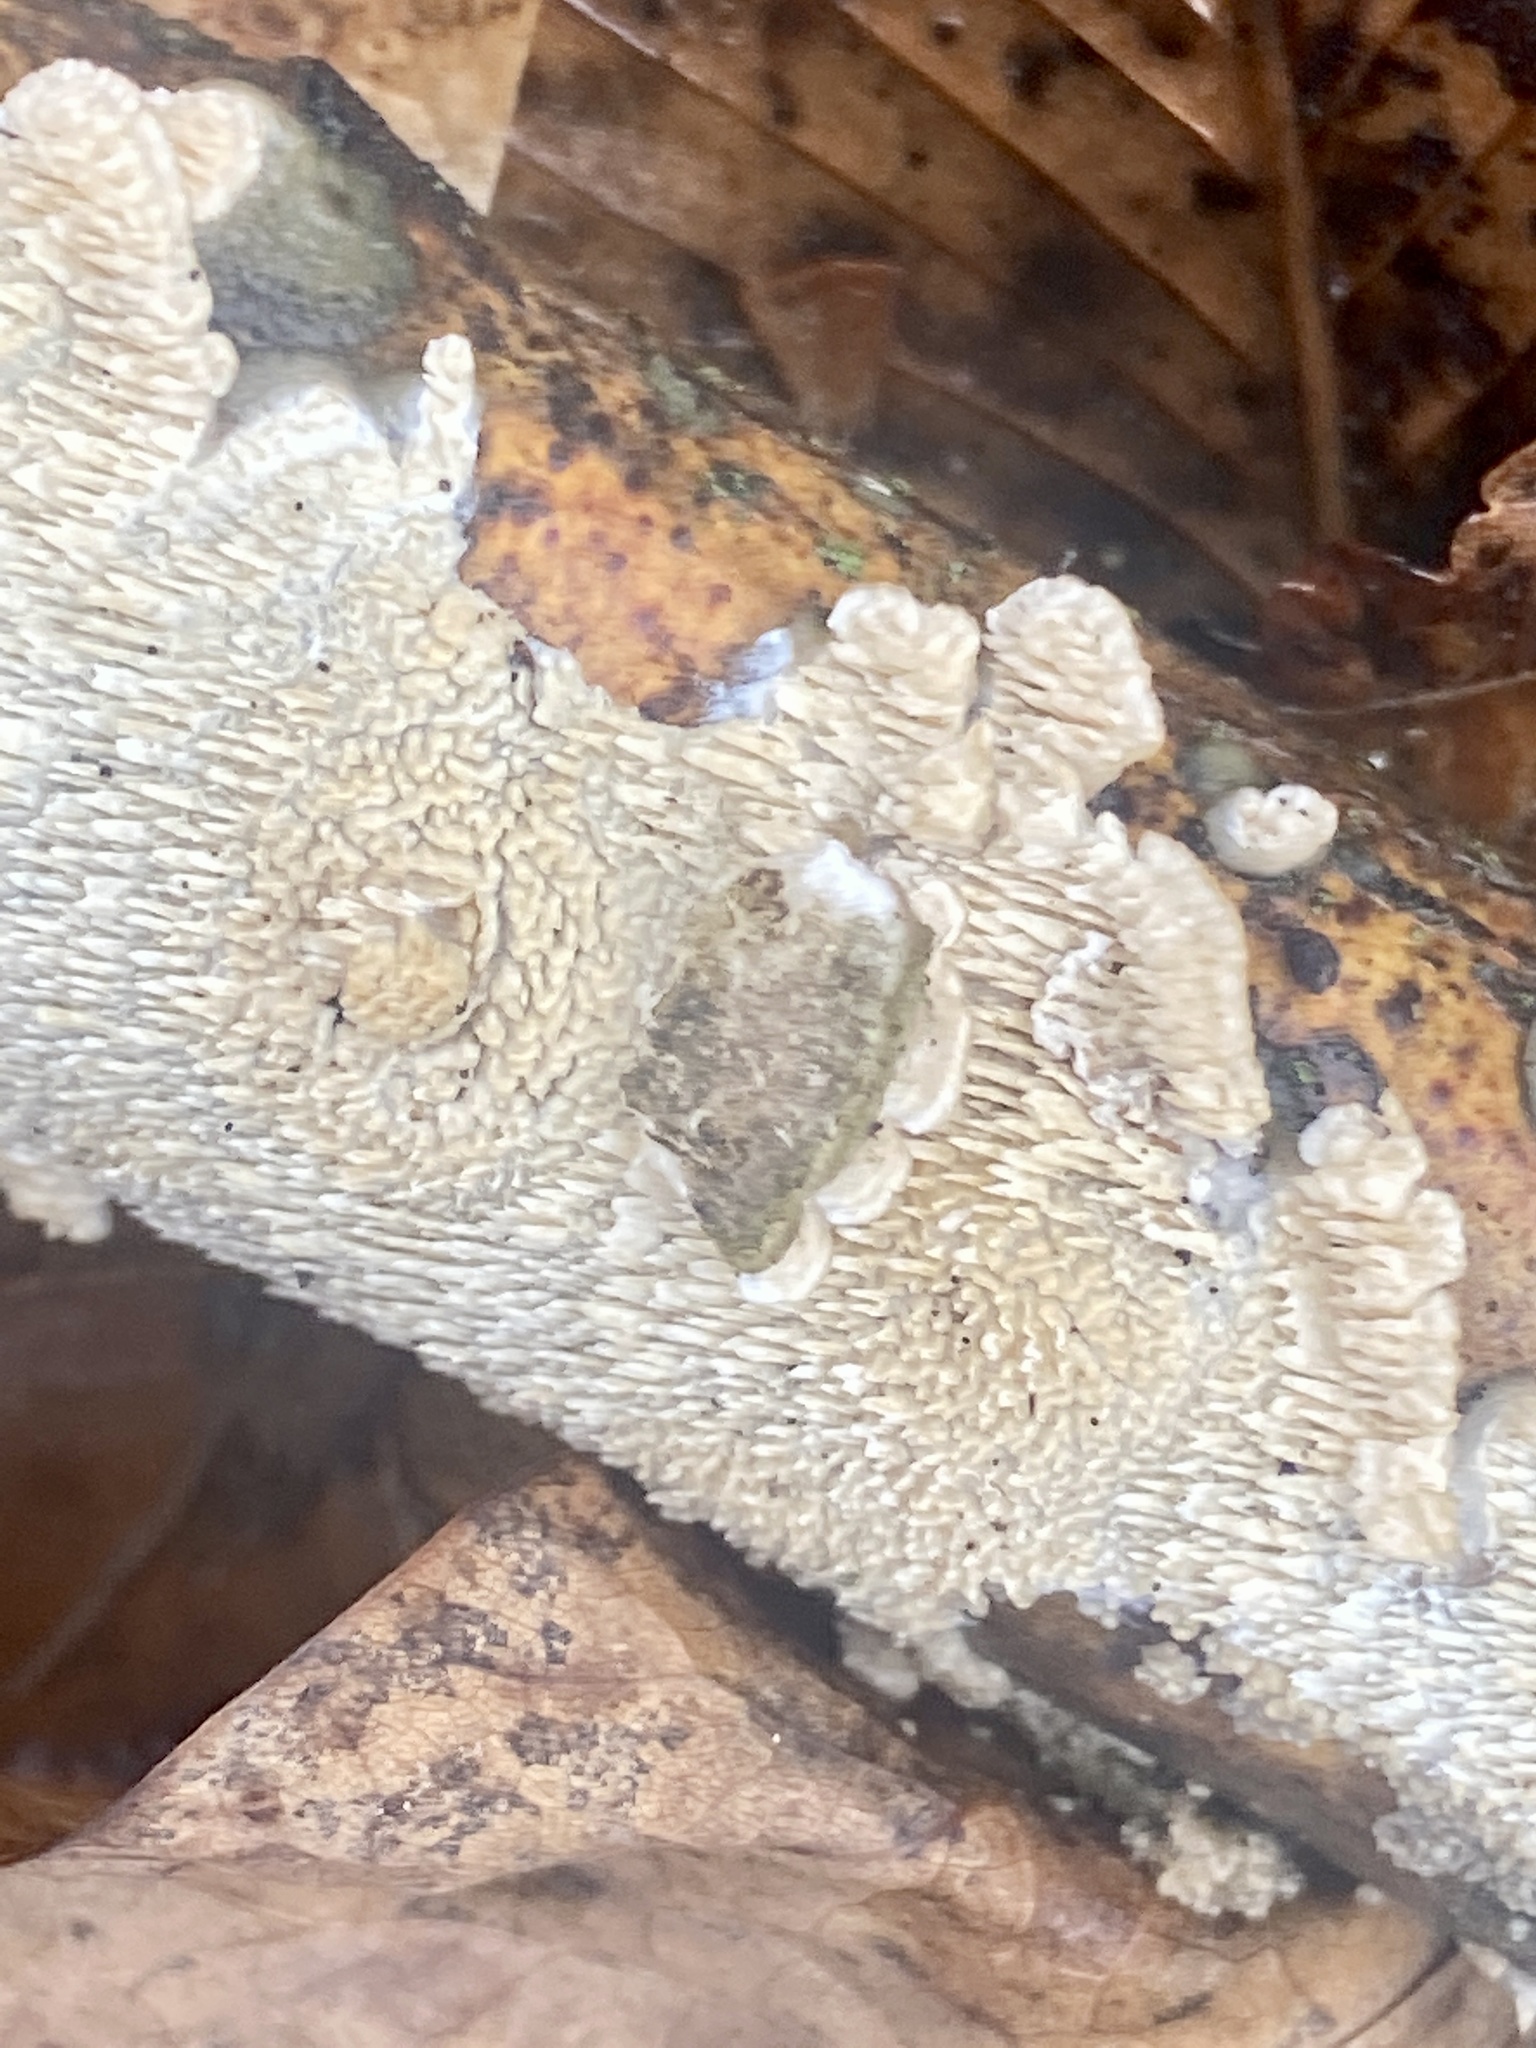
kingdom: Fungi
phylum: Basidiomycota
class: Agaricomycetes
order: Polyporales
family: Irpicaceae
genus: Irpex
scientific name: Irpex lacteus
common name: Milk-white toothed polypore
